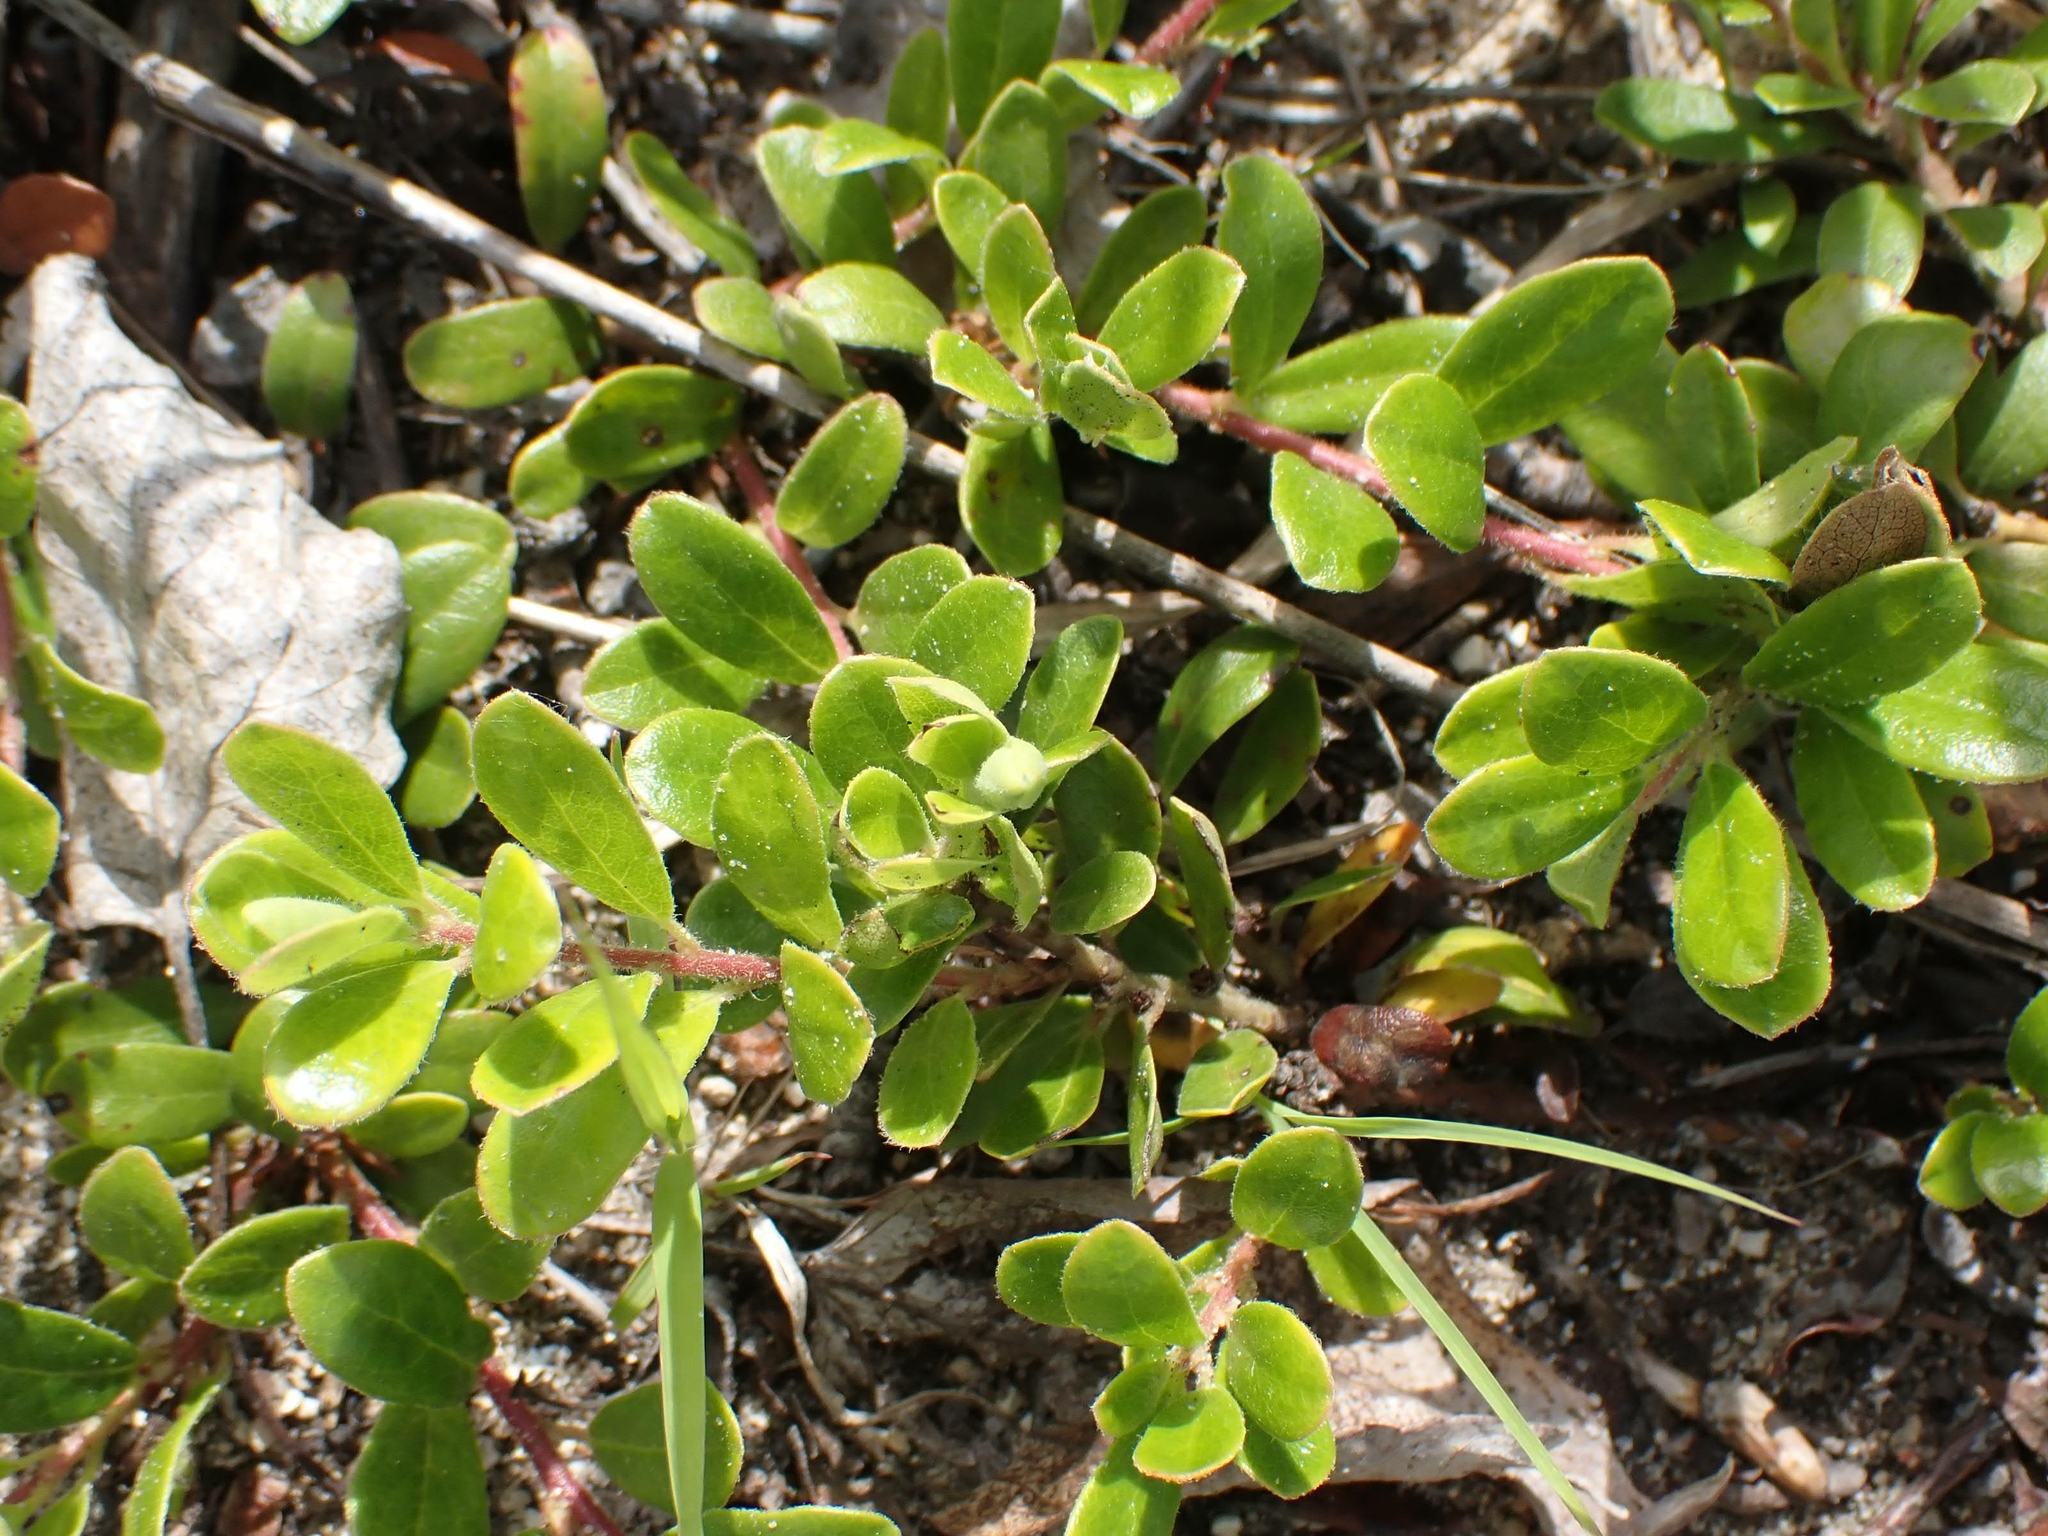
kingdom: Plantae
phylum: Tracheophyta
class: Magnoliopsida
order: Ericales
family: Ericaceae
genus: Arctostaphylos
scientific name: Arctostaphylos uva-ursi
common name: Bearberry
